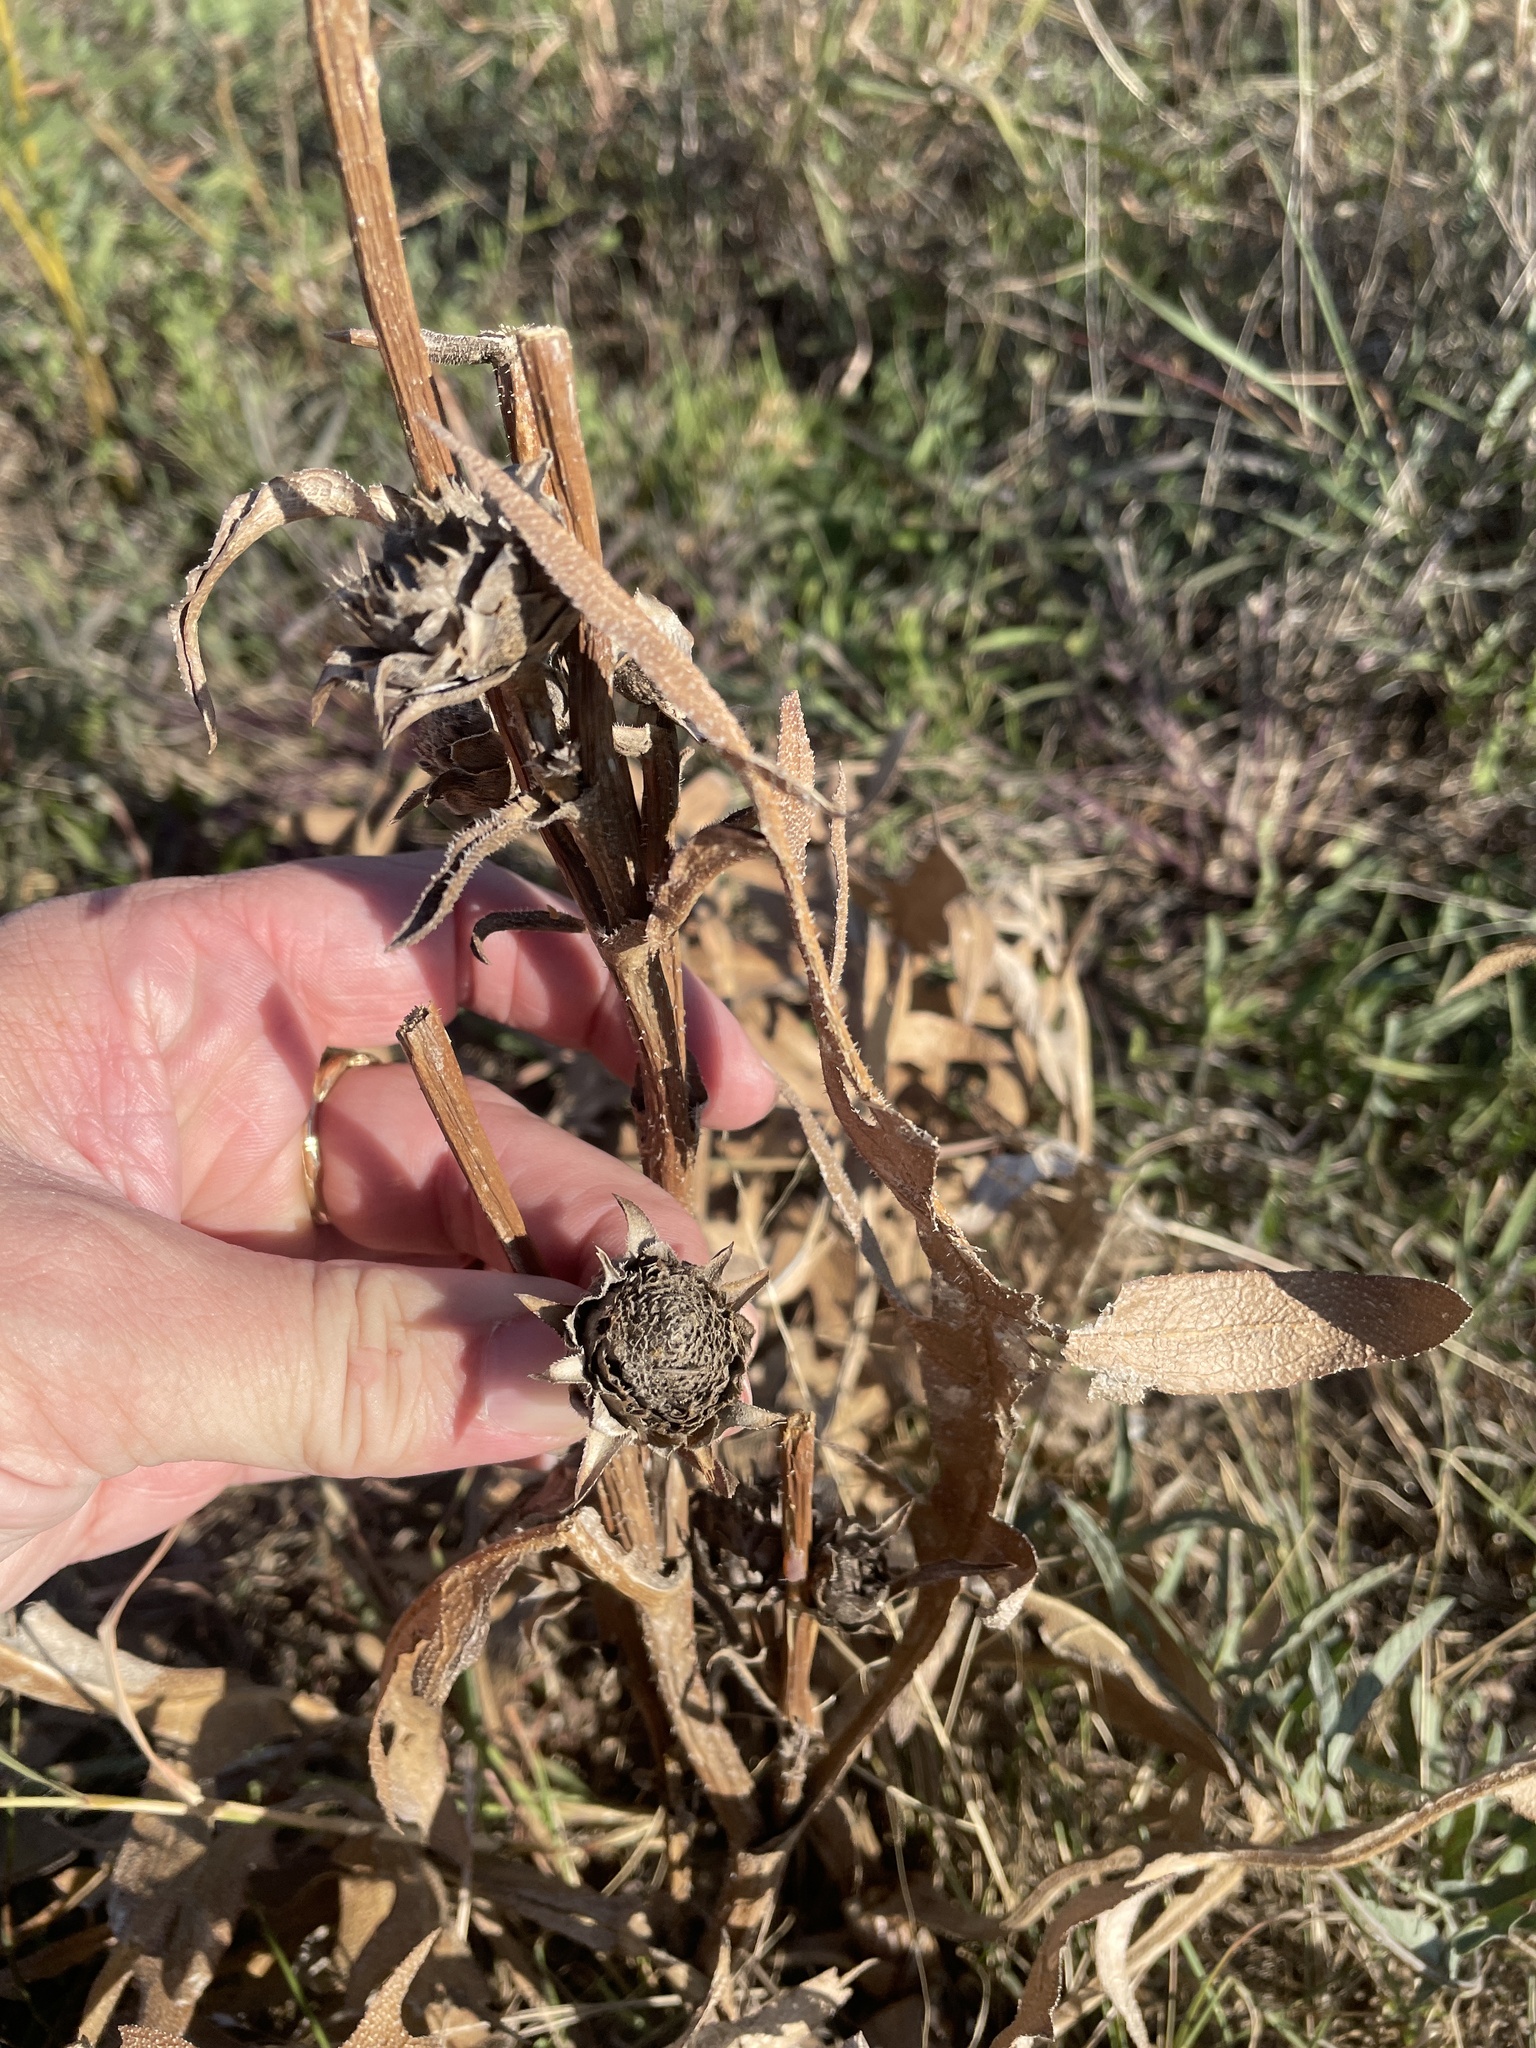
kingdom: Plantae
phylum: Tracheophyta
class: Magnoliopsida
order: Asterales
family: Asteraceae
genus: Silphium
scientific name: Silphium albiflorum
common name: White rosinweed
